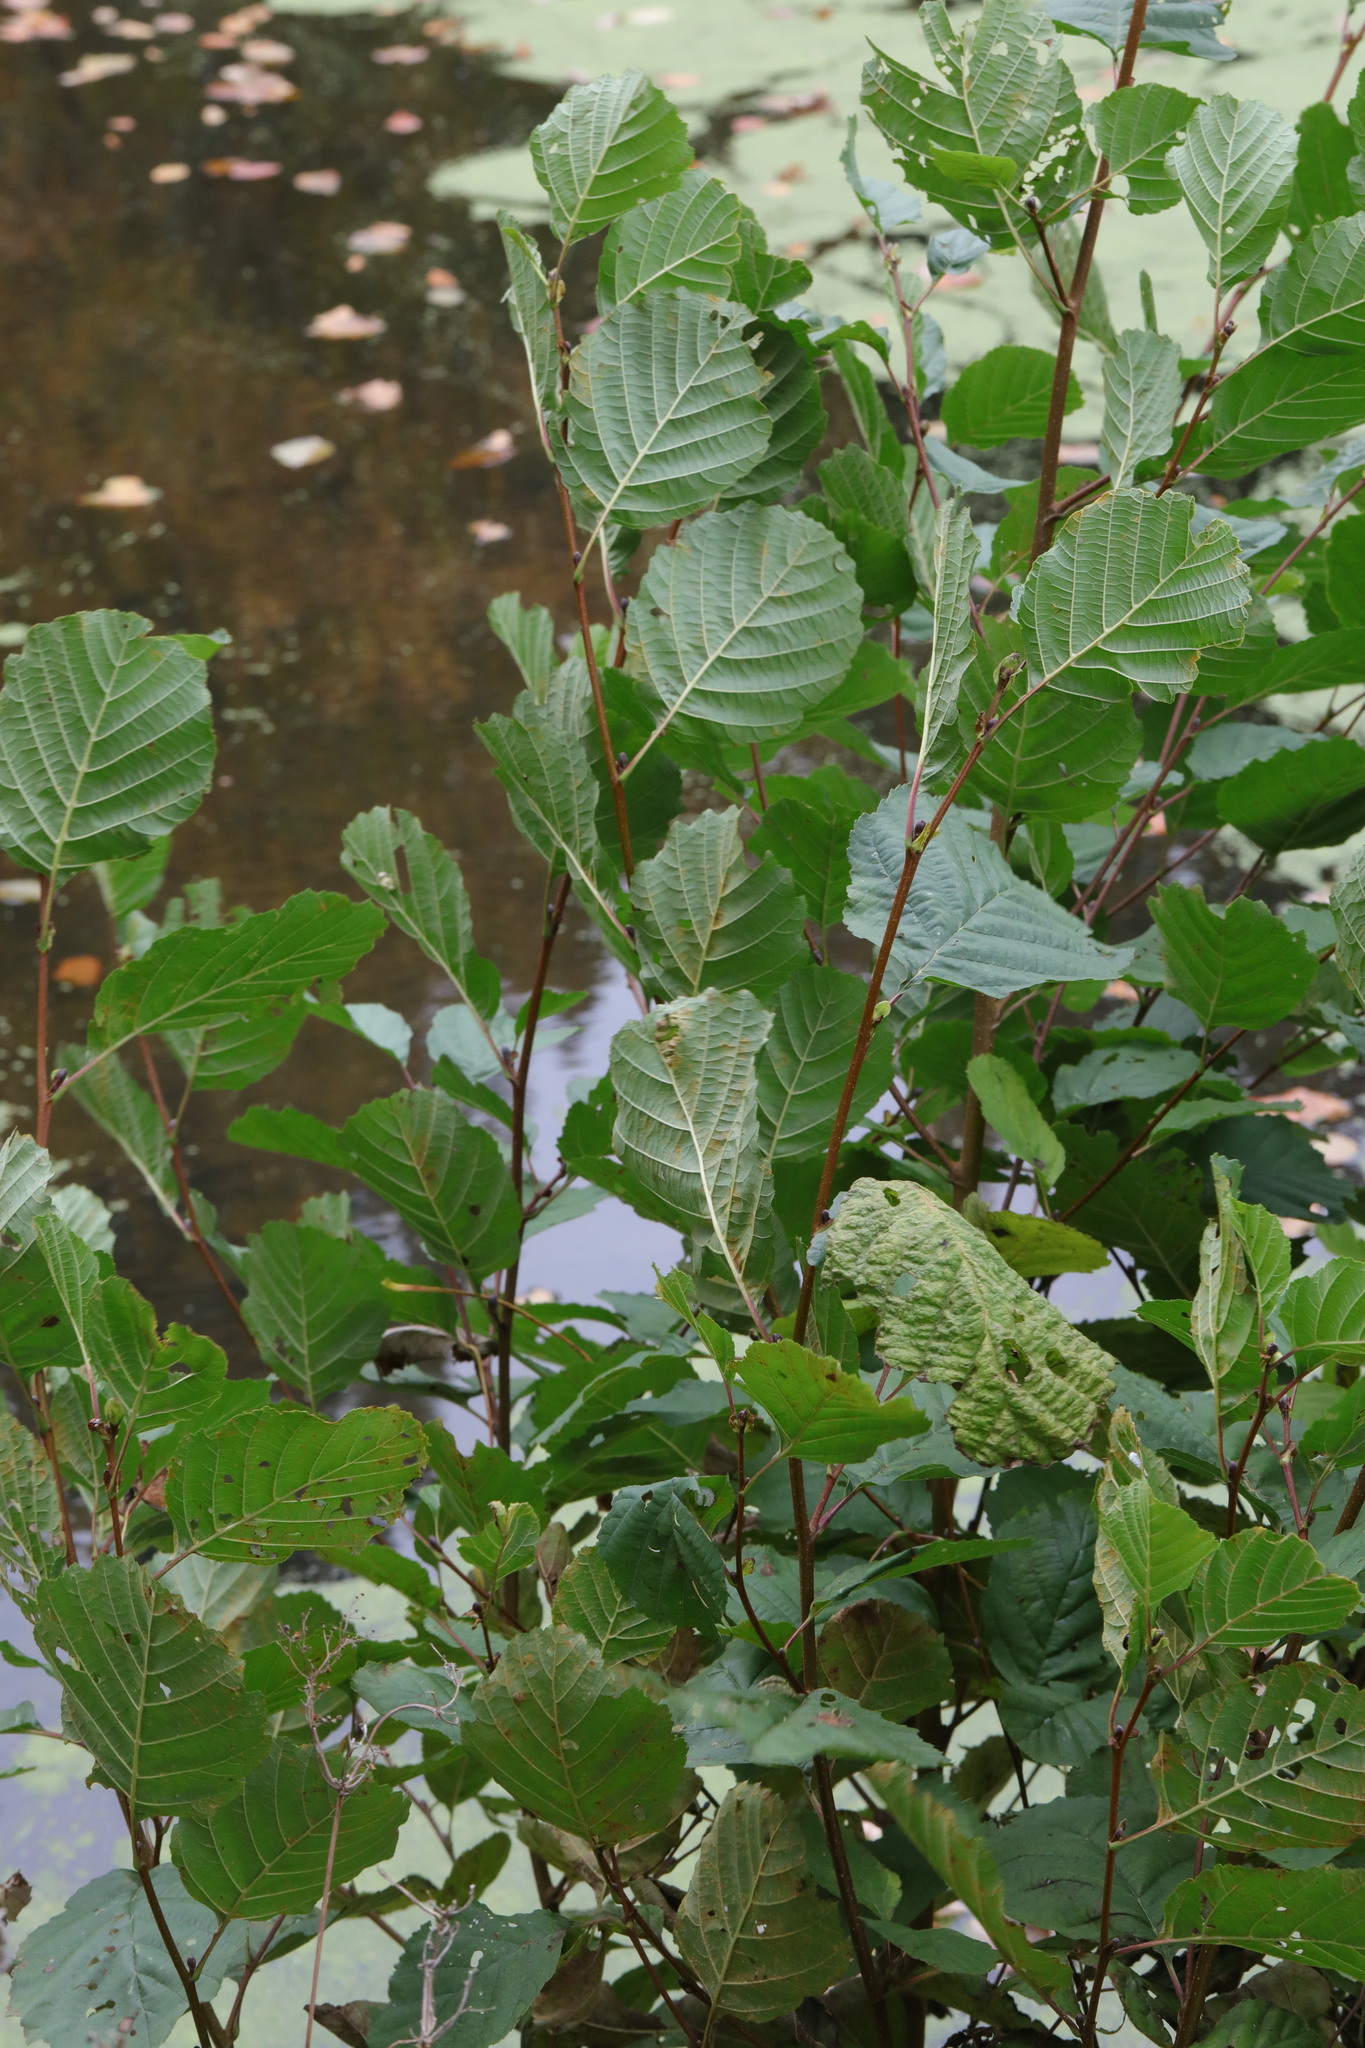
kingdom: Plantae
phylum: Tracheophyta
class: Magnoliopsida
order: Fagales
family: Betulaceae
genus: Alnus
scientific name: Alnus glutinosa
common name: Black alder
